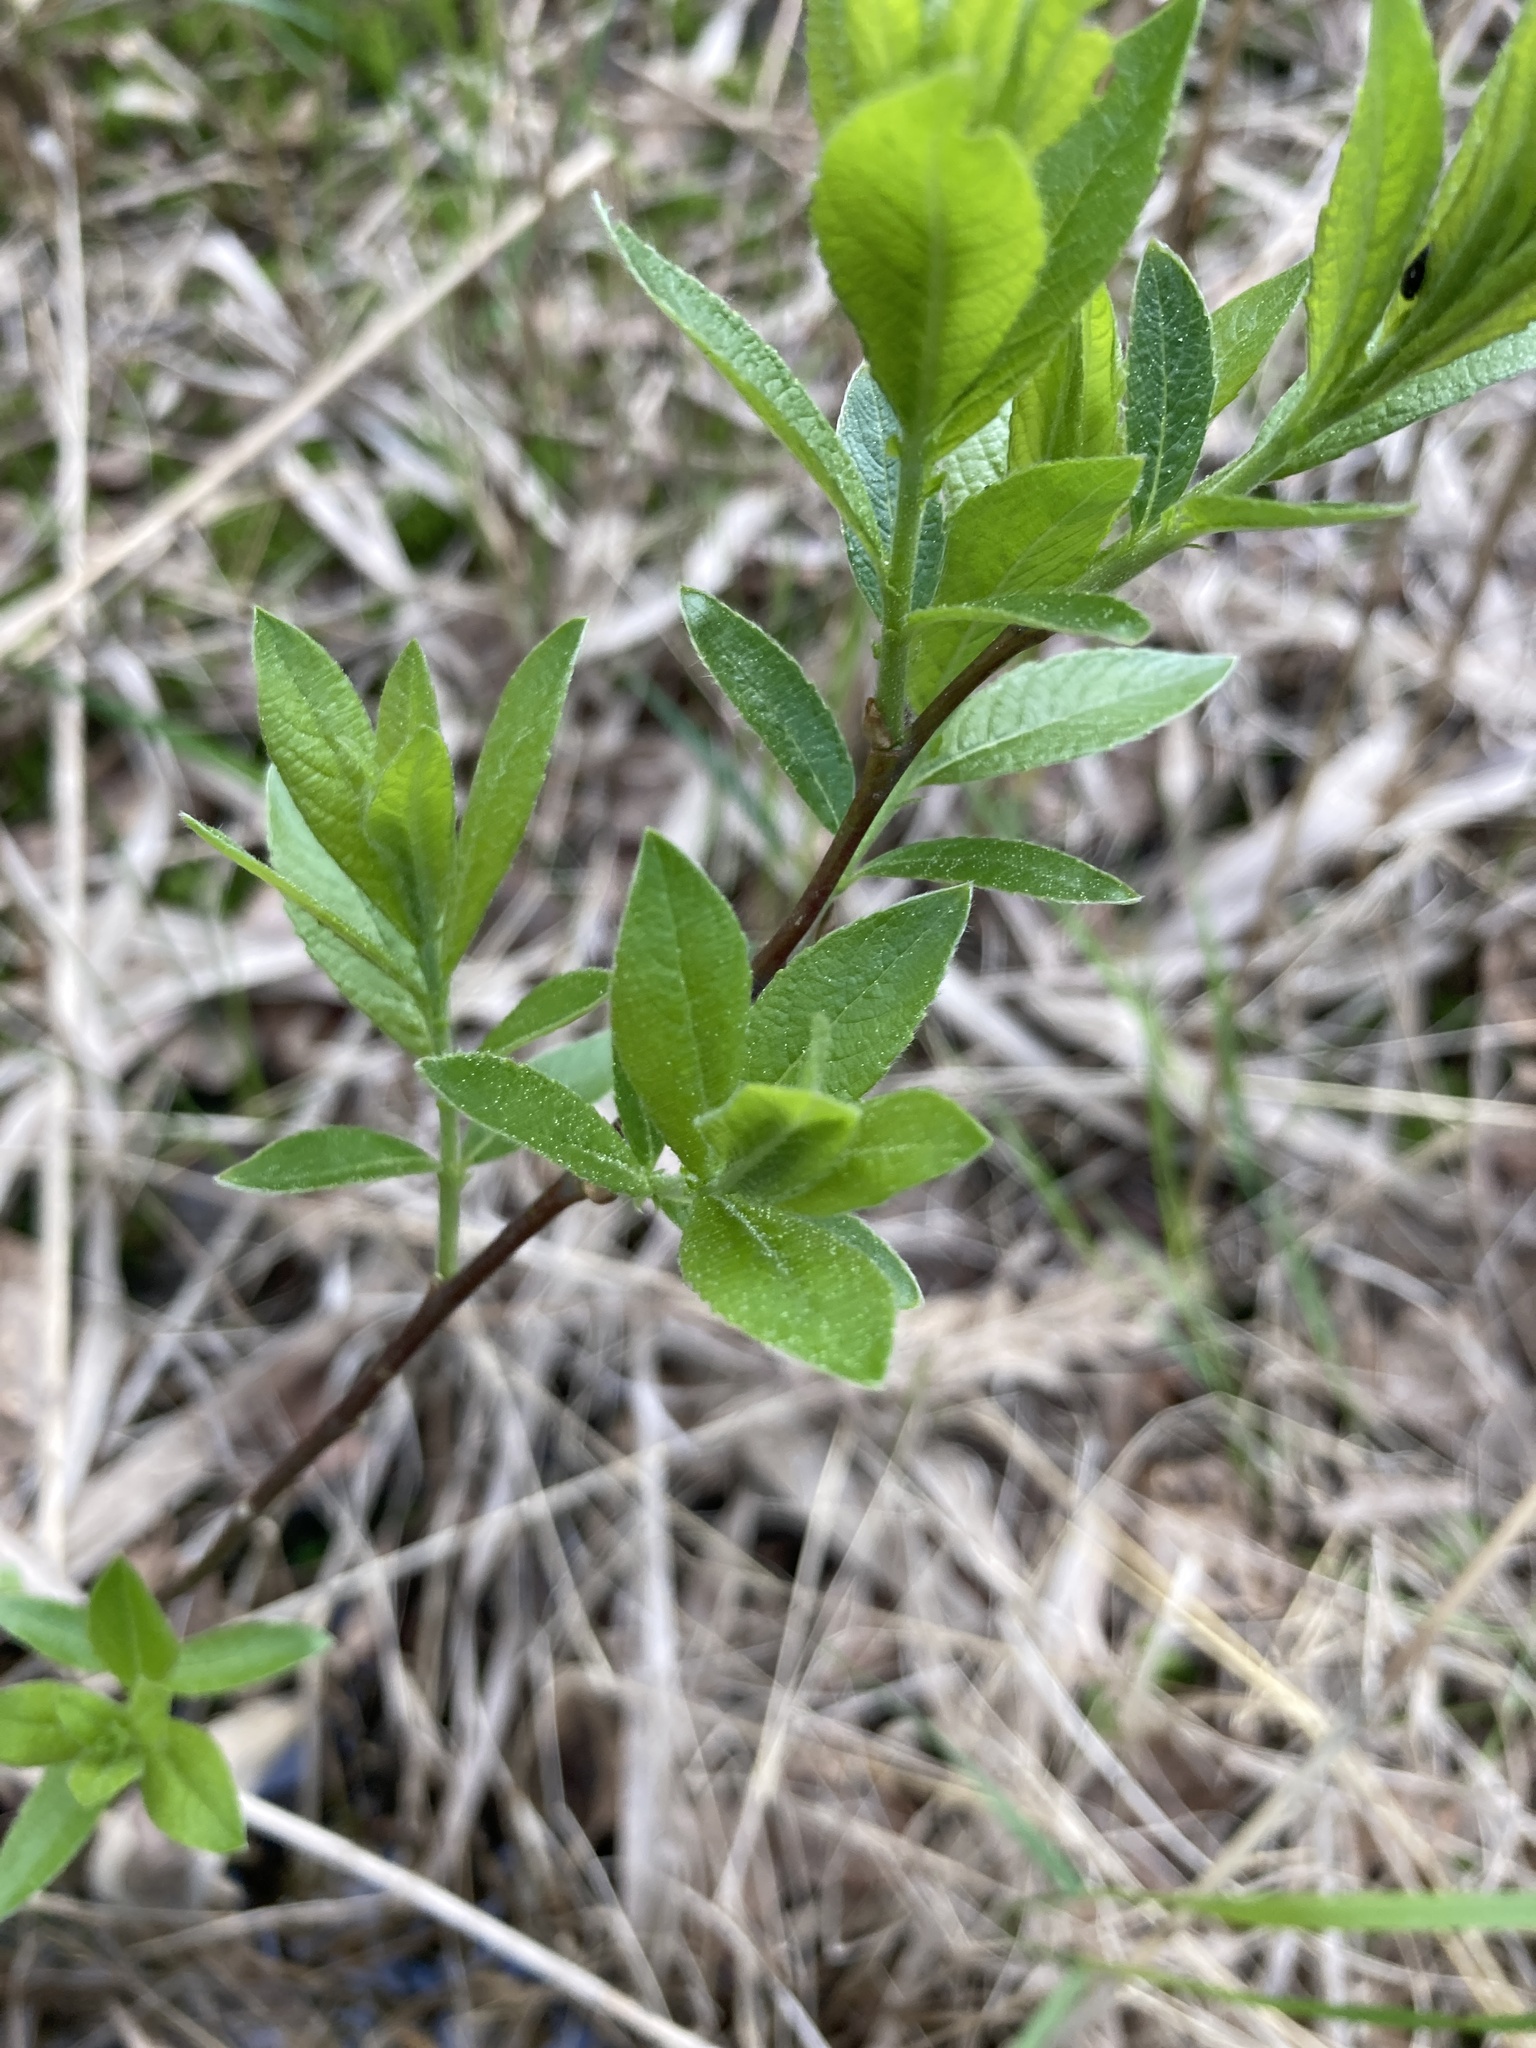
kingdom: Plantae
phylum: Tracheophyta
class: Magnoliopsida
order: Malpighiales
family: Salicaceae
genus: Salix
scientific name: Salix myrsinifolia
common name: Dark-leaved willow
